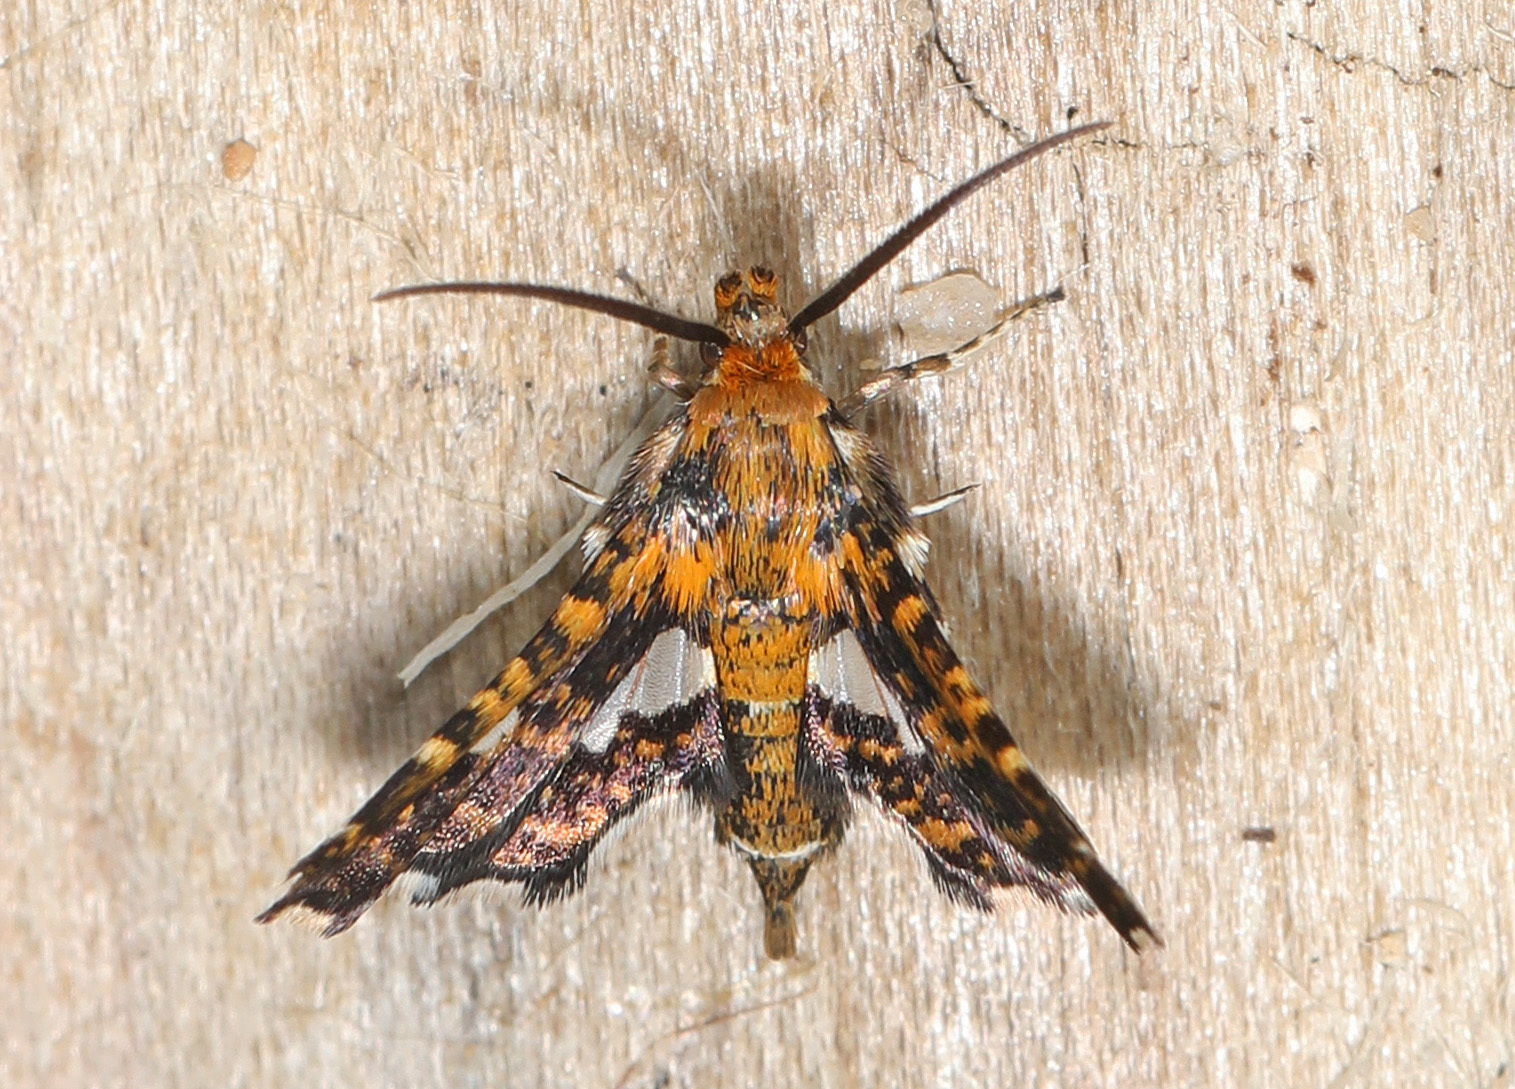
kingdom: Animalia
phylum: Arthropoda
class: Insecta
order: Lepidoptera
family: Thyrididae
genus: Thyris
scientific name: Thyris maculata
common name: Spotted thyris moth
